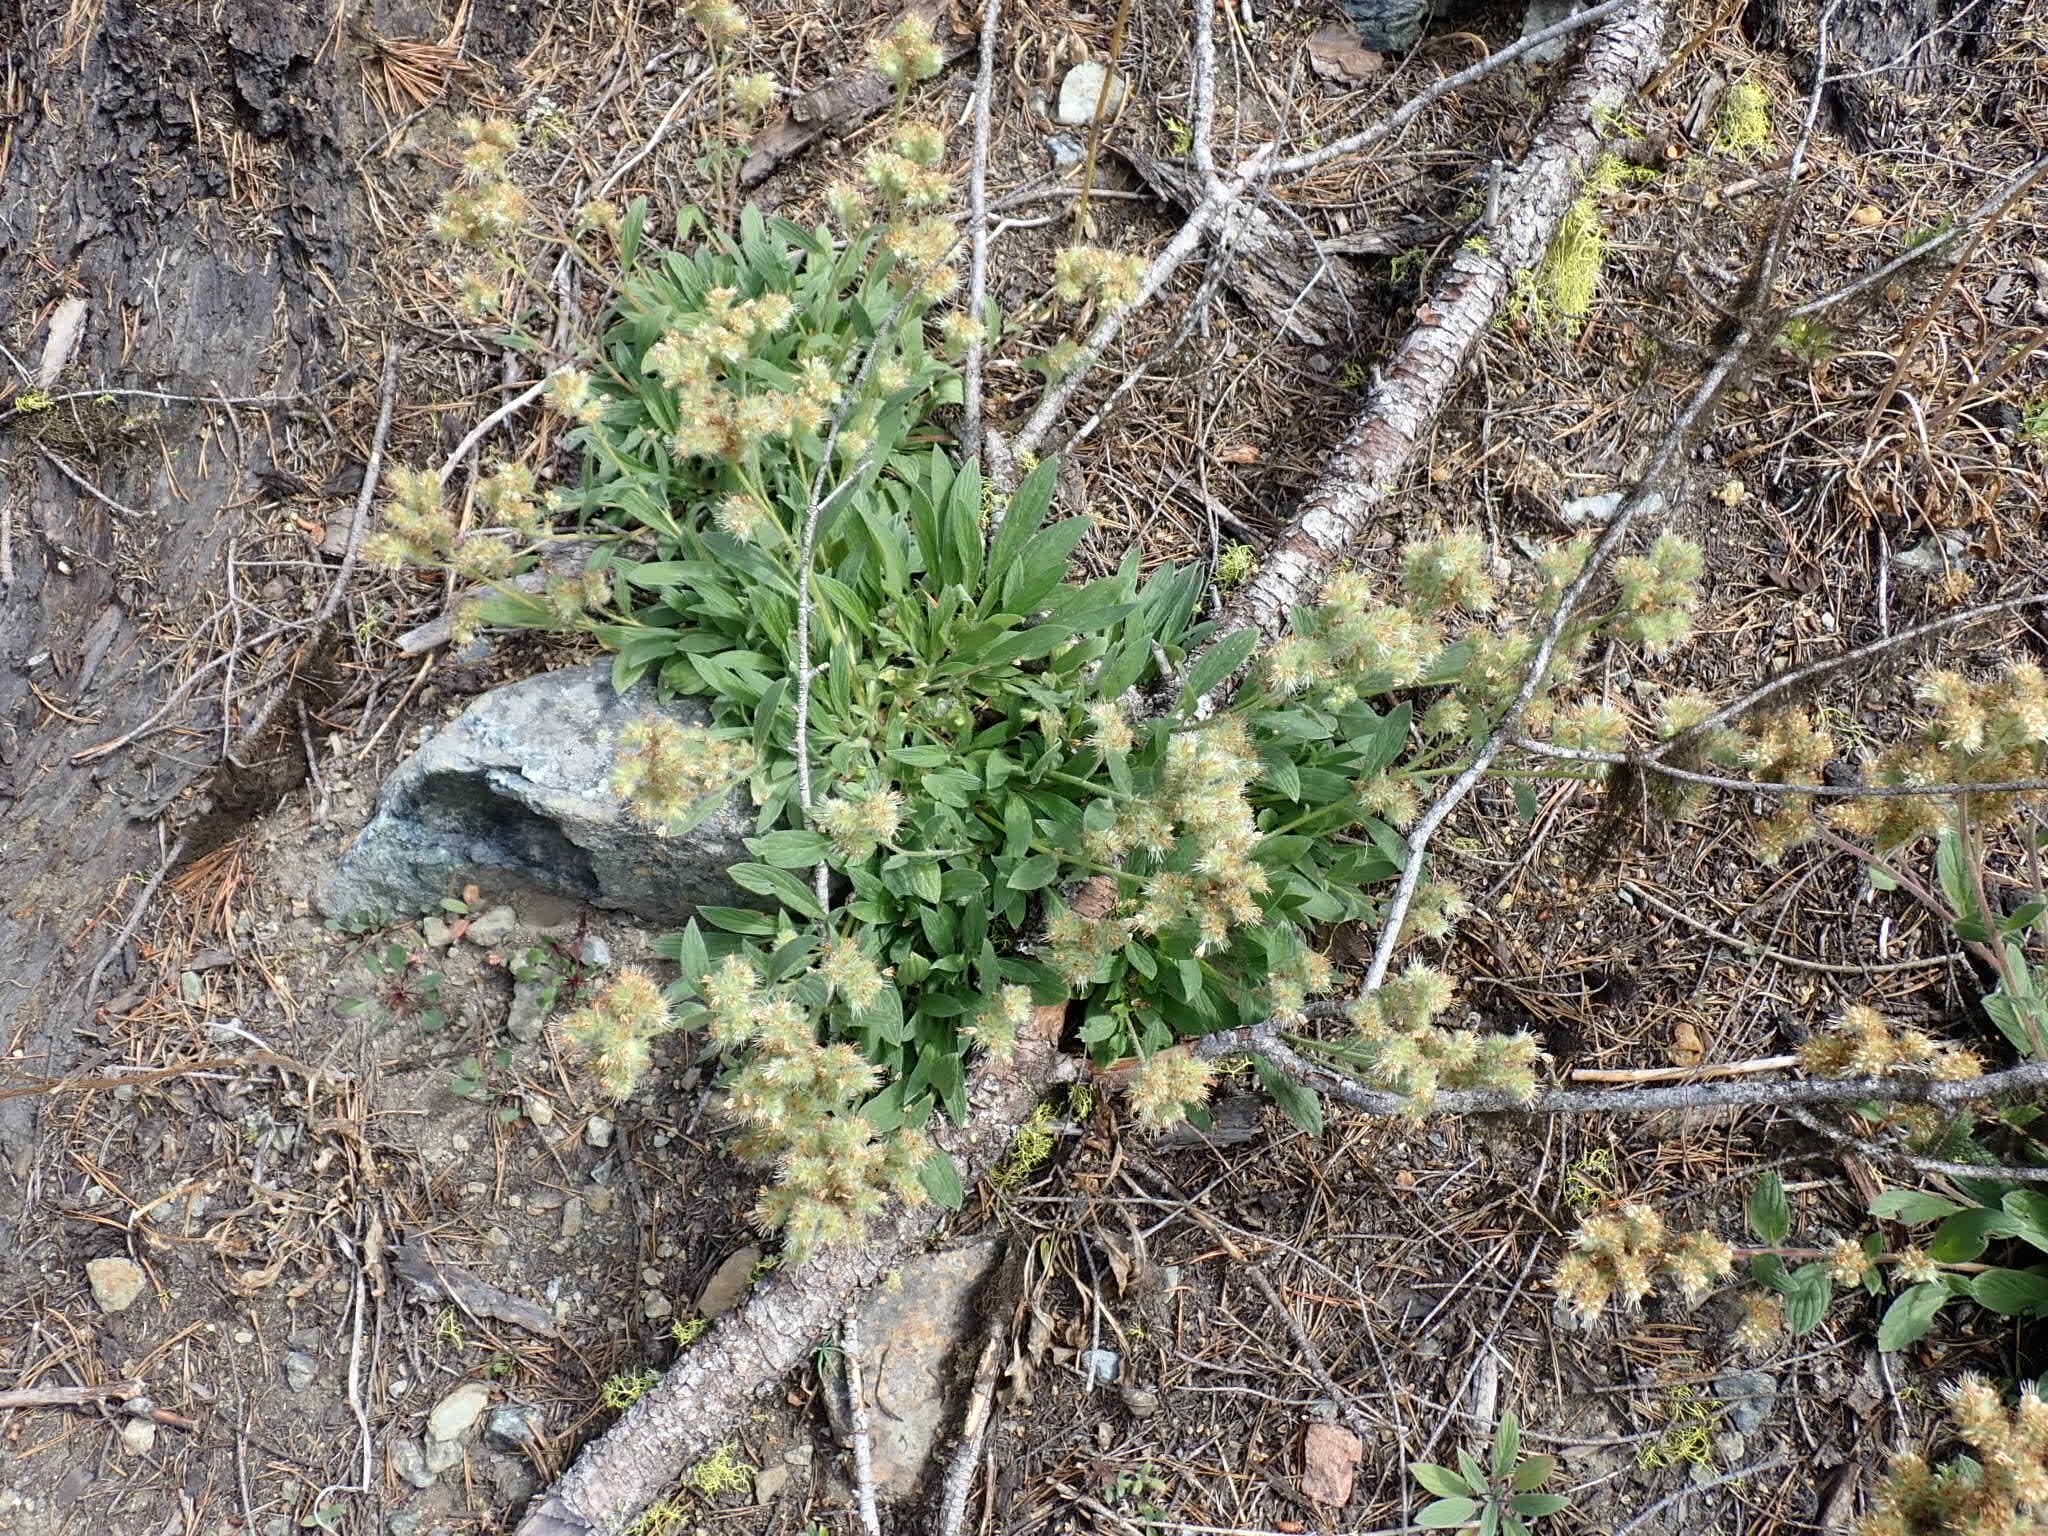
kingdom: Plantae
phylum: Tracheophyta
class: Magnoliopsida
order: Boraginales
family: Hydrophyllaceae
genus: Phacelia
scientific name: Phacelia hastata
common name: Silver-leaved phacelia
